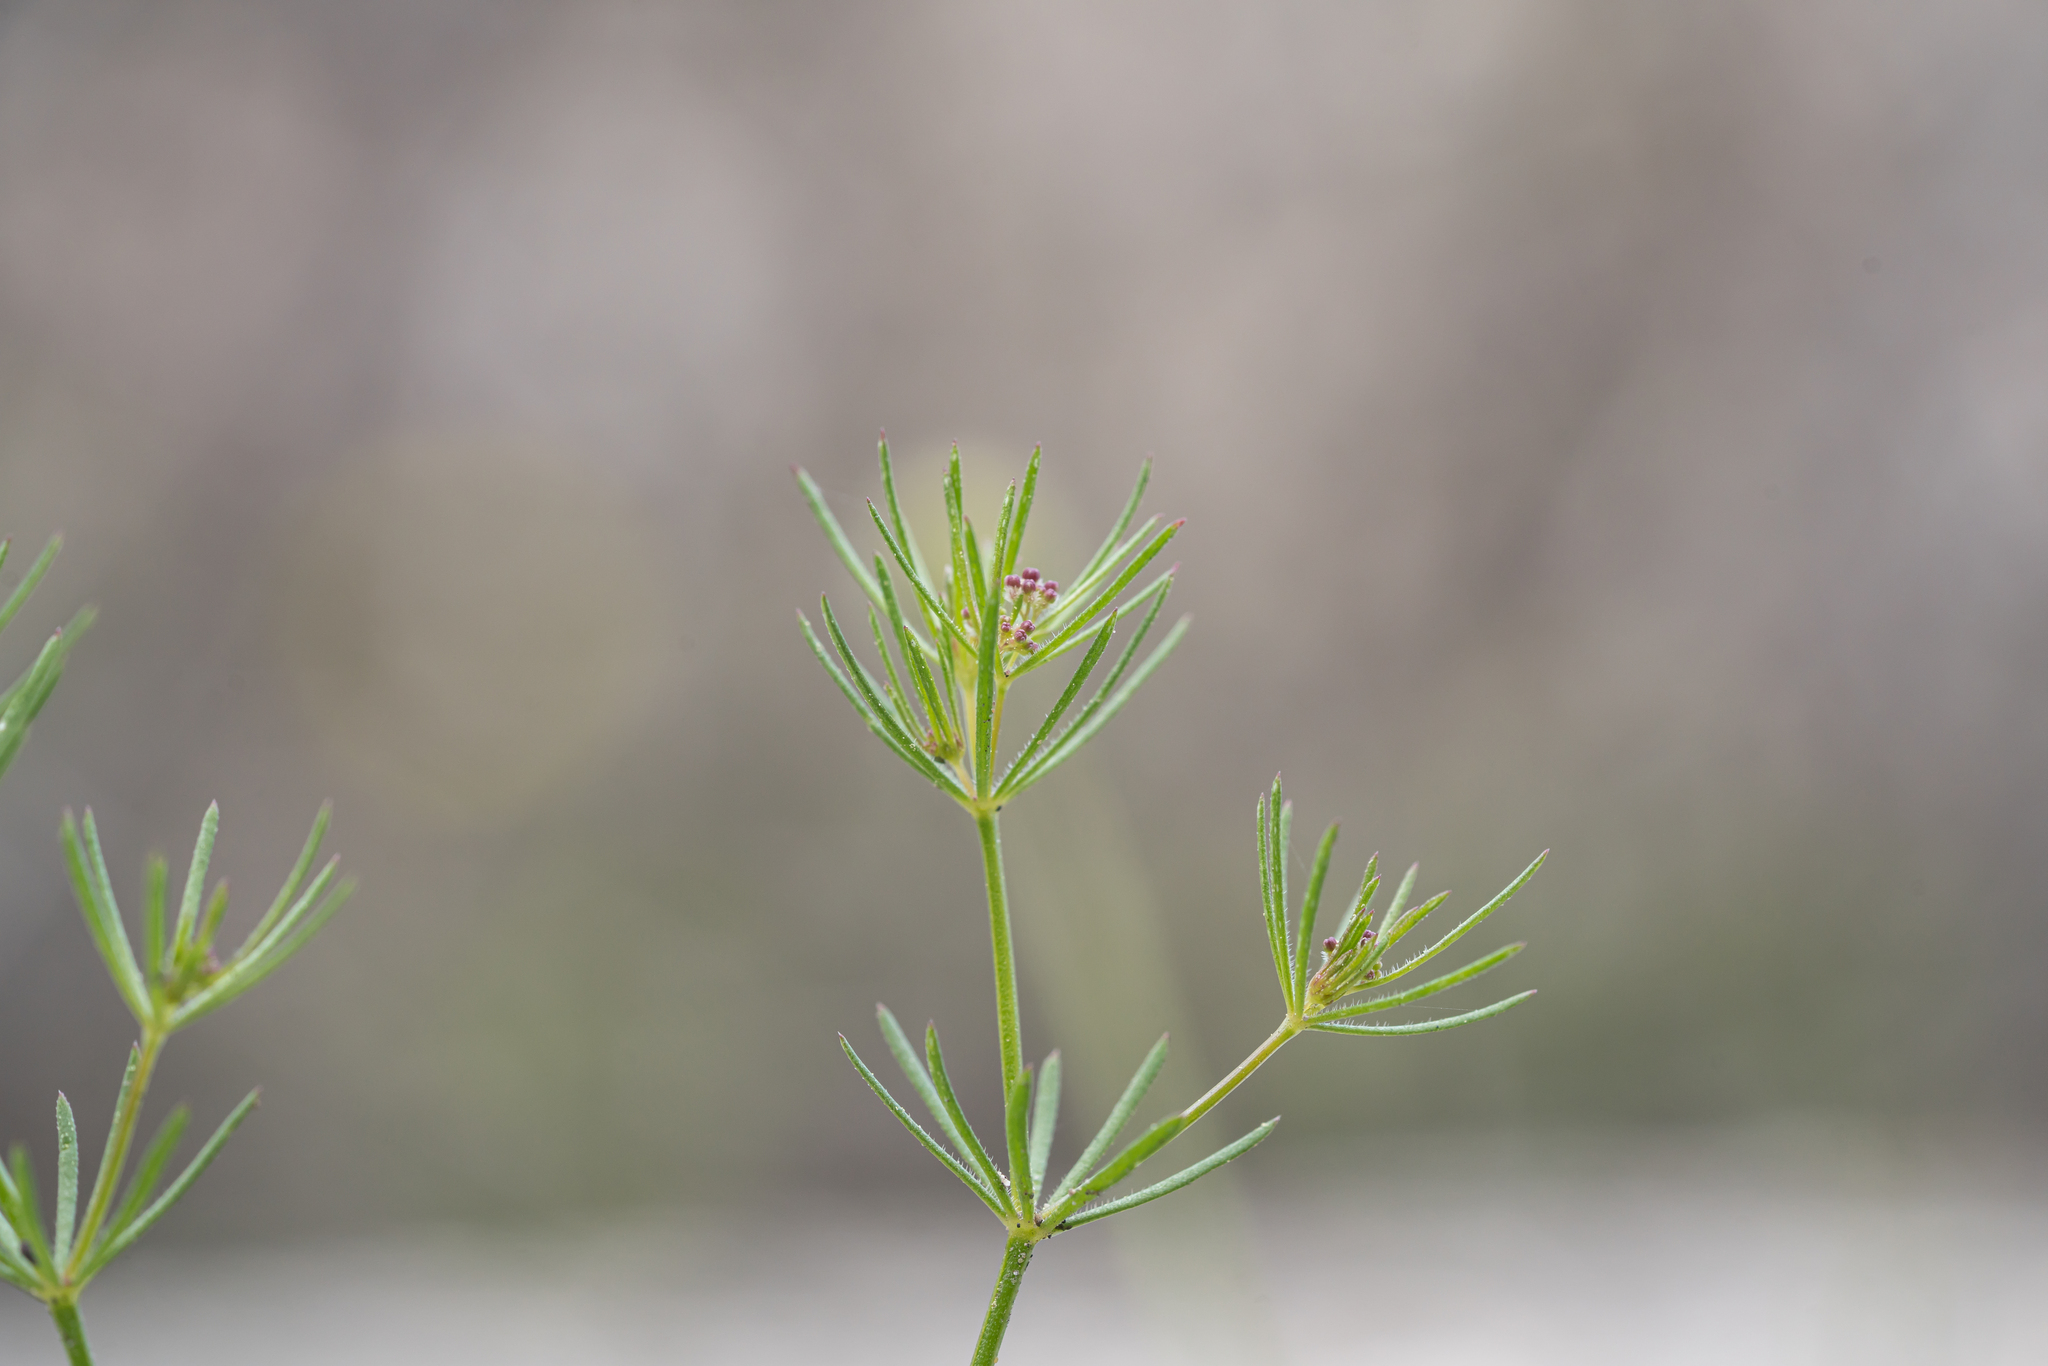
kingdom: Plantae
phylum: Tracheophyta
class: Magnoliopsida
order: Gentianales
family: Rubiaceae
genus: Galium
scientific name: Galium setaceum
